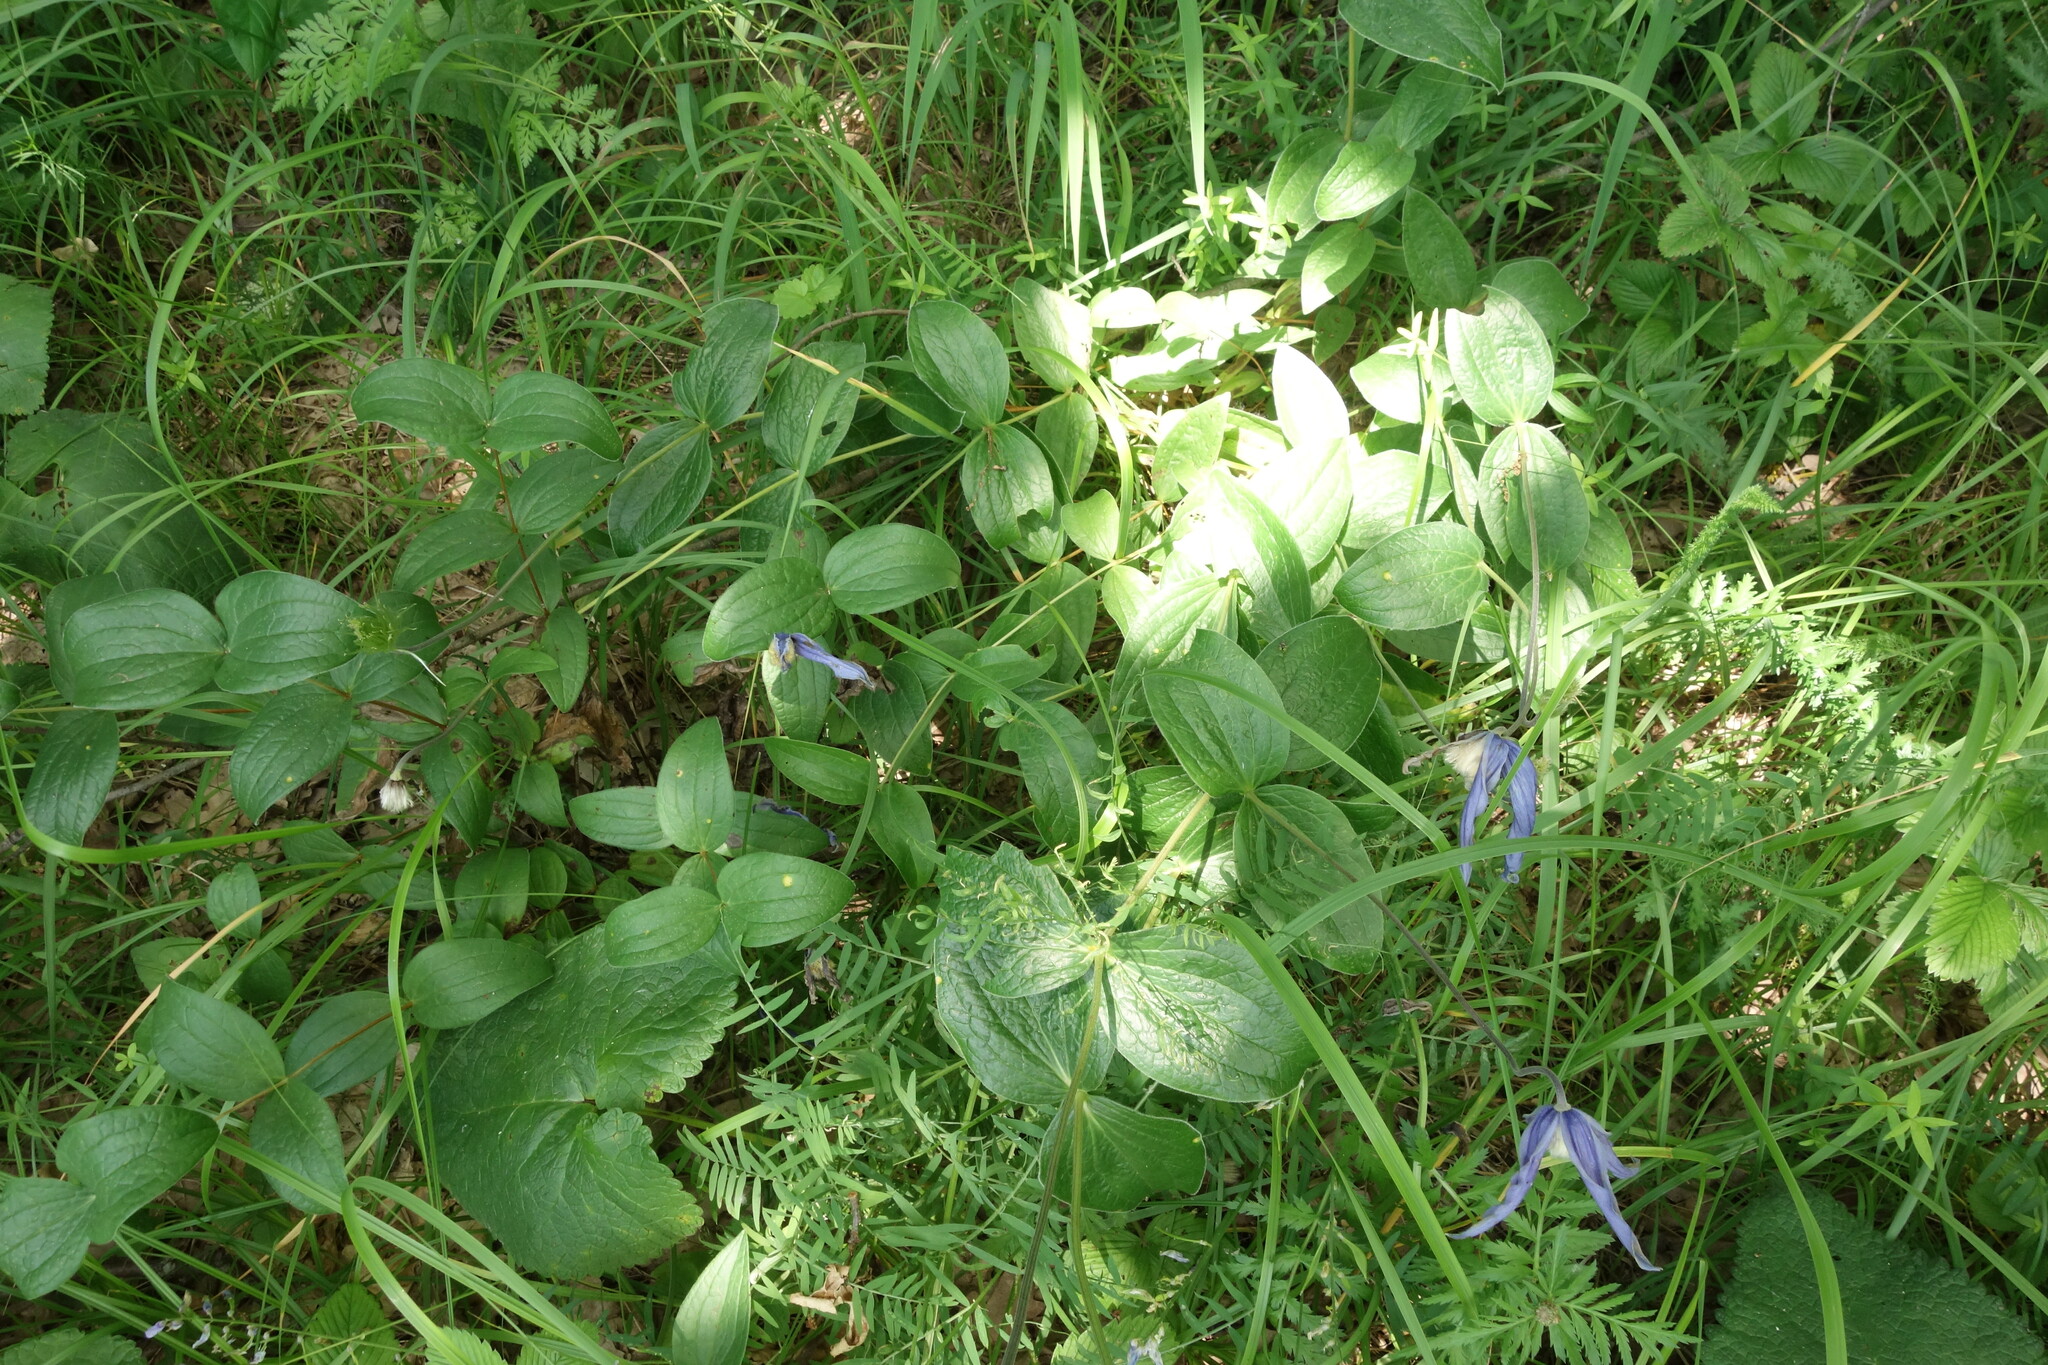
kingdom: Plantae
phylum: Tracheophyta
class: Magnoliopsida
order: Ranunculales
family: Ranunculaceae
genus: Clematis
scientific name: Clematis integrifolia
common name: Solitary clematis
